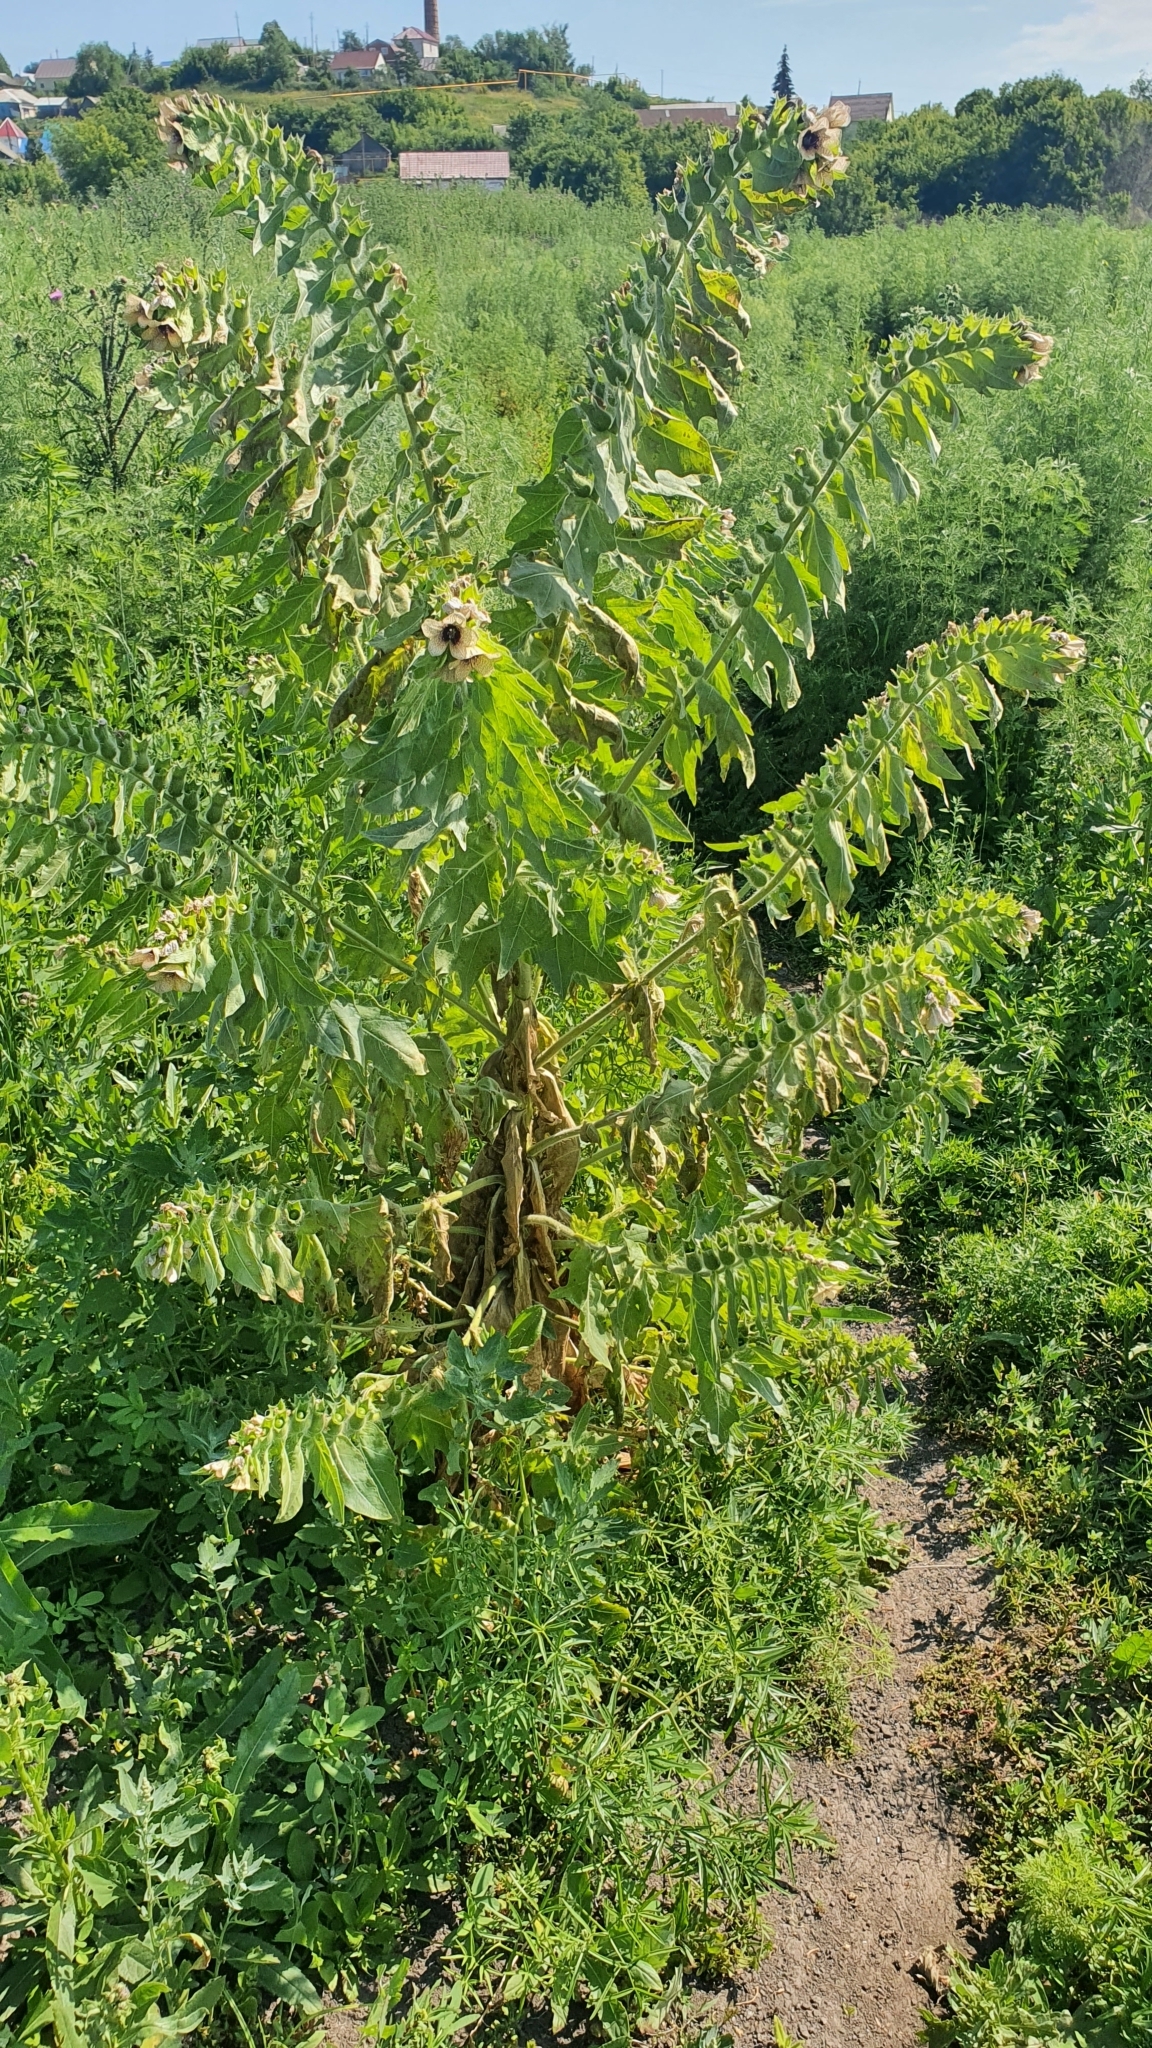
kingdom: Plantae
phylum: Tracheophyta
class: Magnoliopsida
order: Solanales
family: Solanaceae
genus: Hyoscyamus
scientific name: Hyoscyamus niger
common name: Henbane
